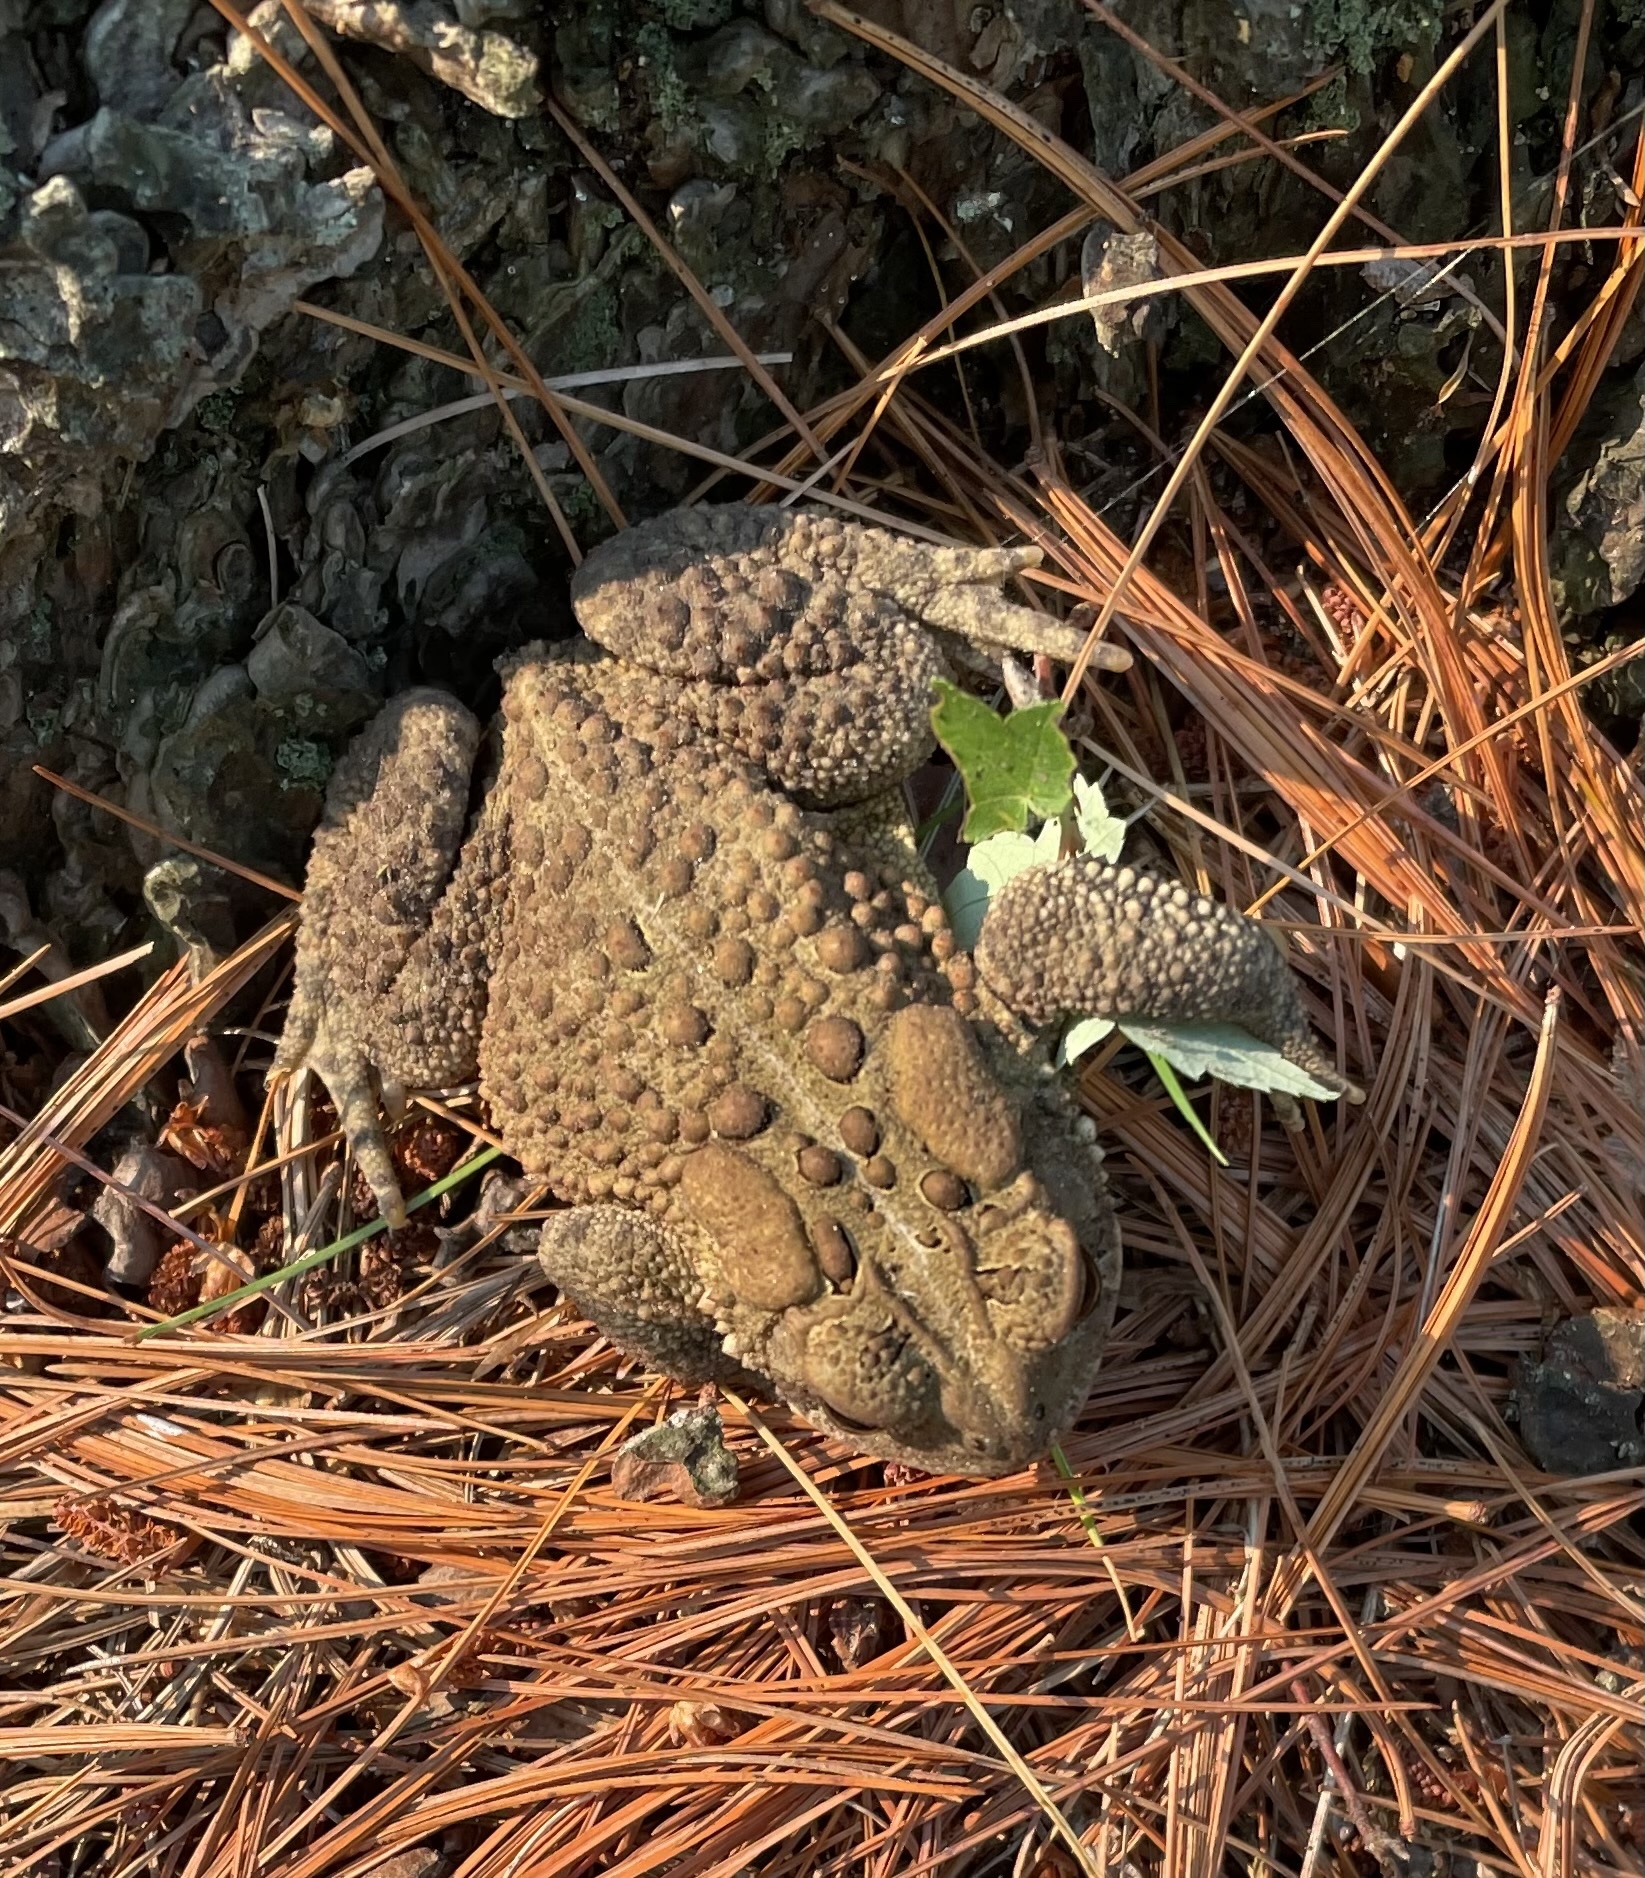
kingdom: Animalia
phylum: Chordata
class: Amphibia
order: Anura
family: Bufonidae
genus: Anaxyrus
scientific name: Anaxyrus americanus
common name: American toad
